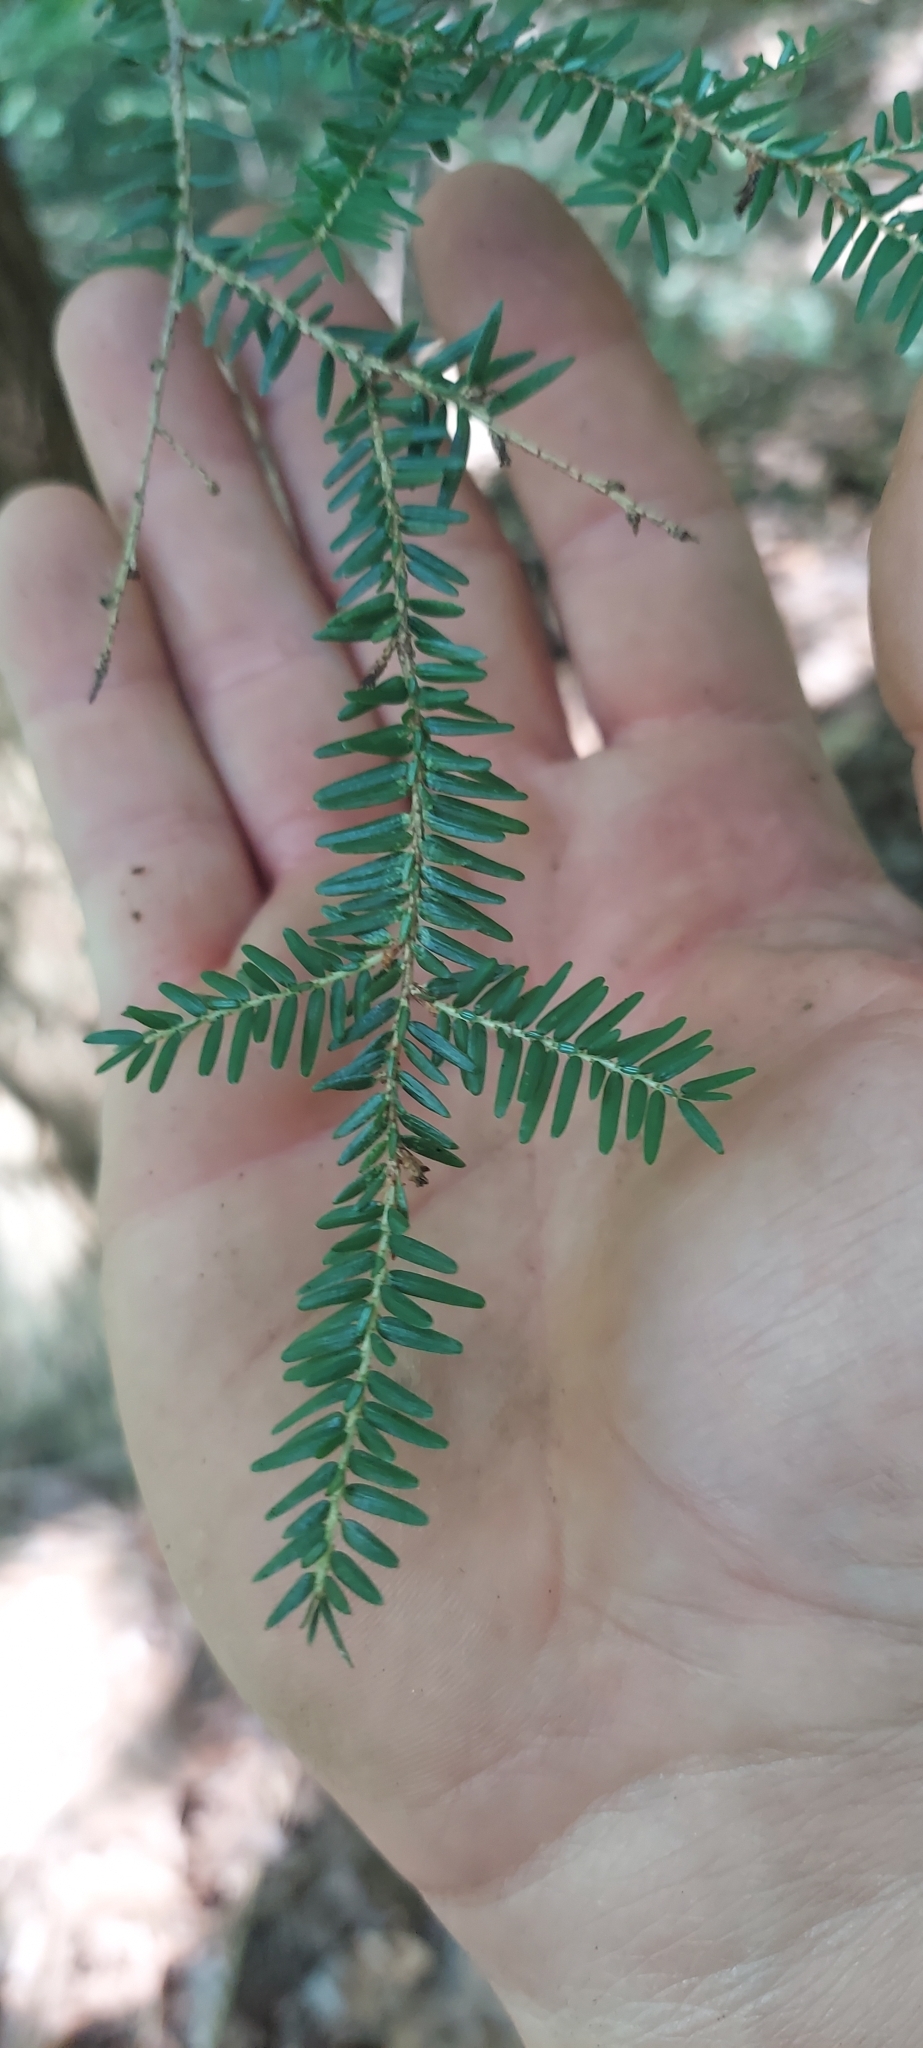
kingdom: Plantae
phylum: Tracheophyta
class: Pinopsida
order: Pinales
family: Pinaceae
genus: Tsuga
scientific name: Tsuga canadensis
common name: Eastern hemlock
